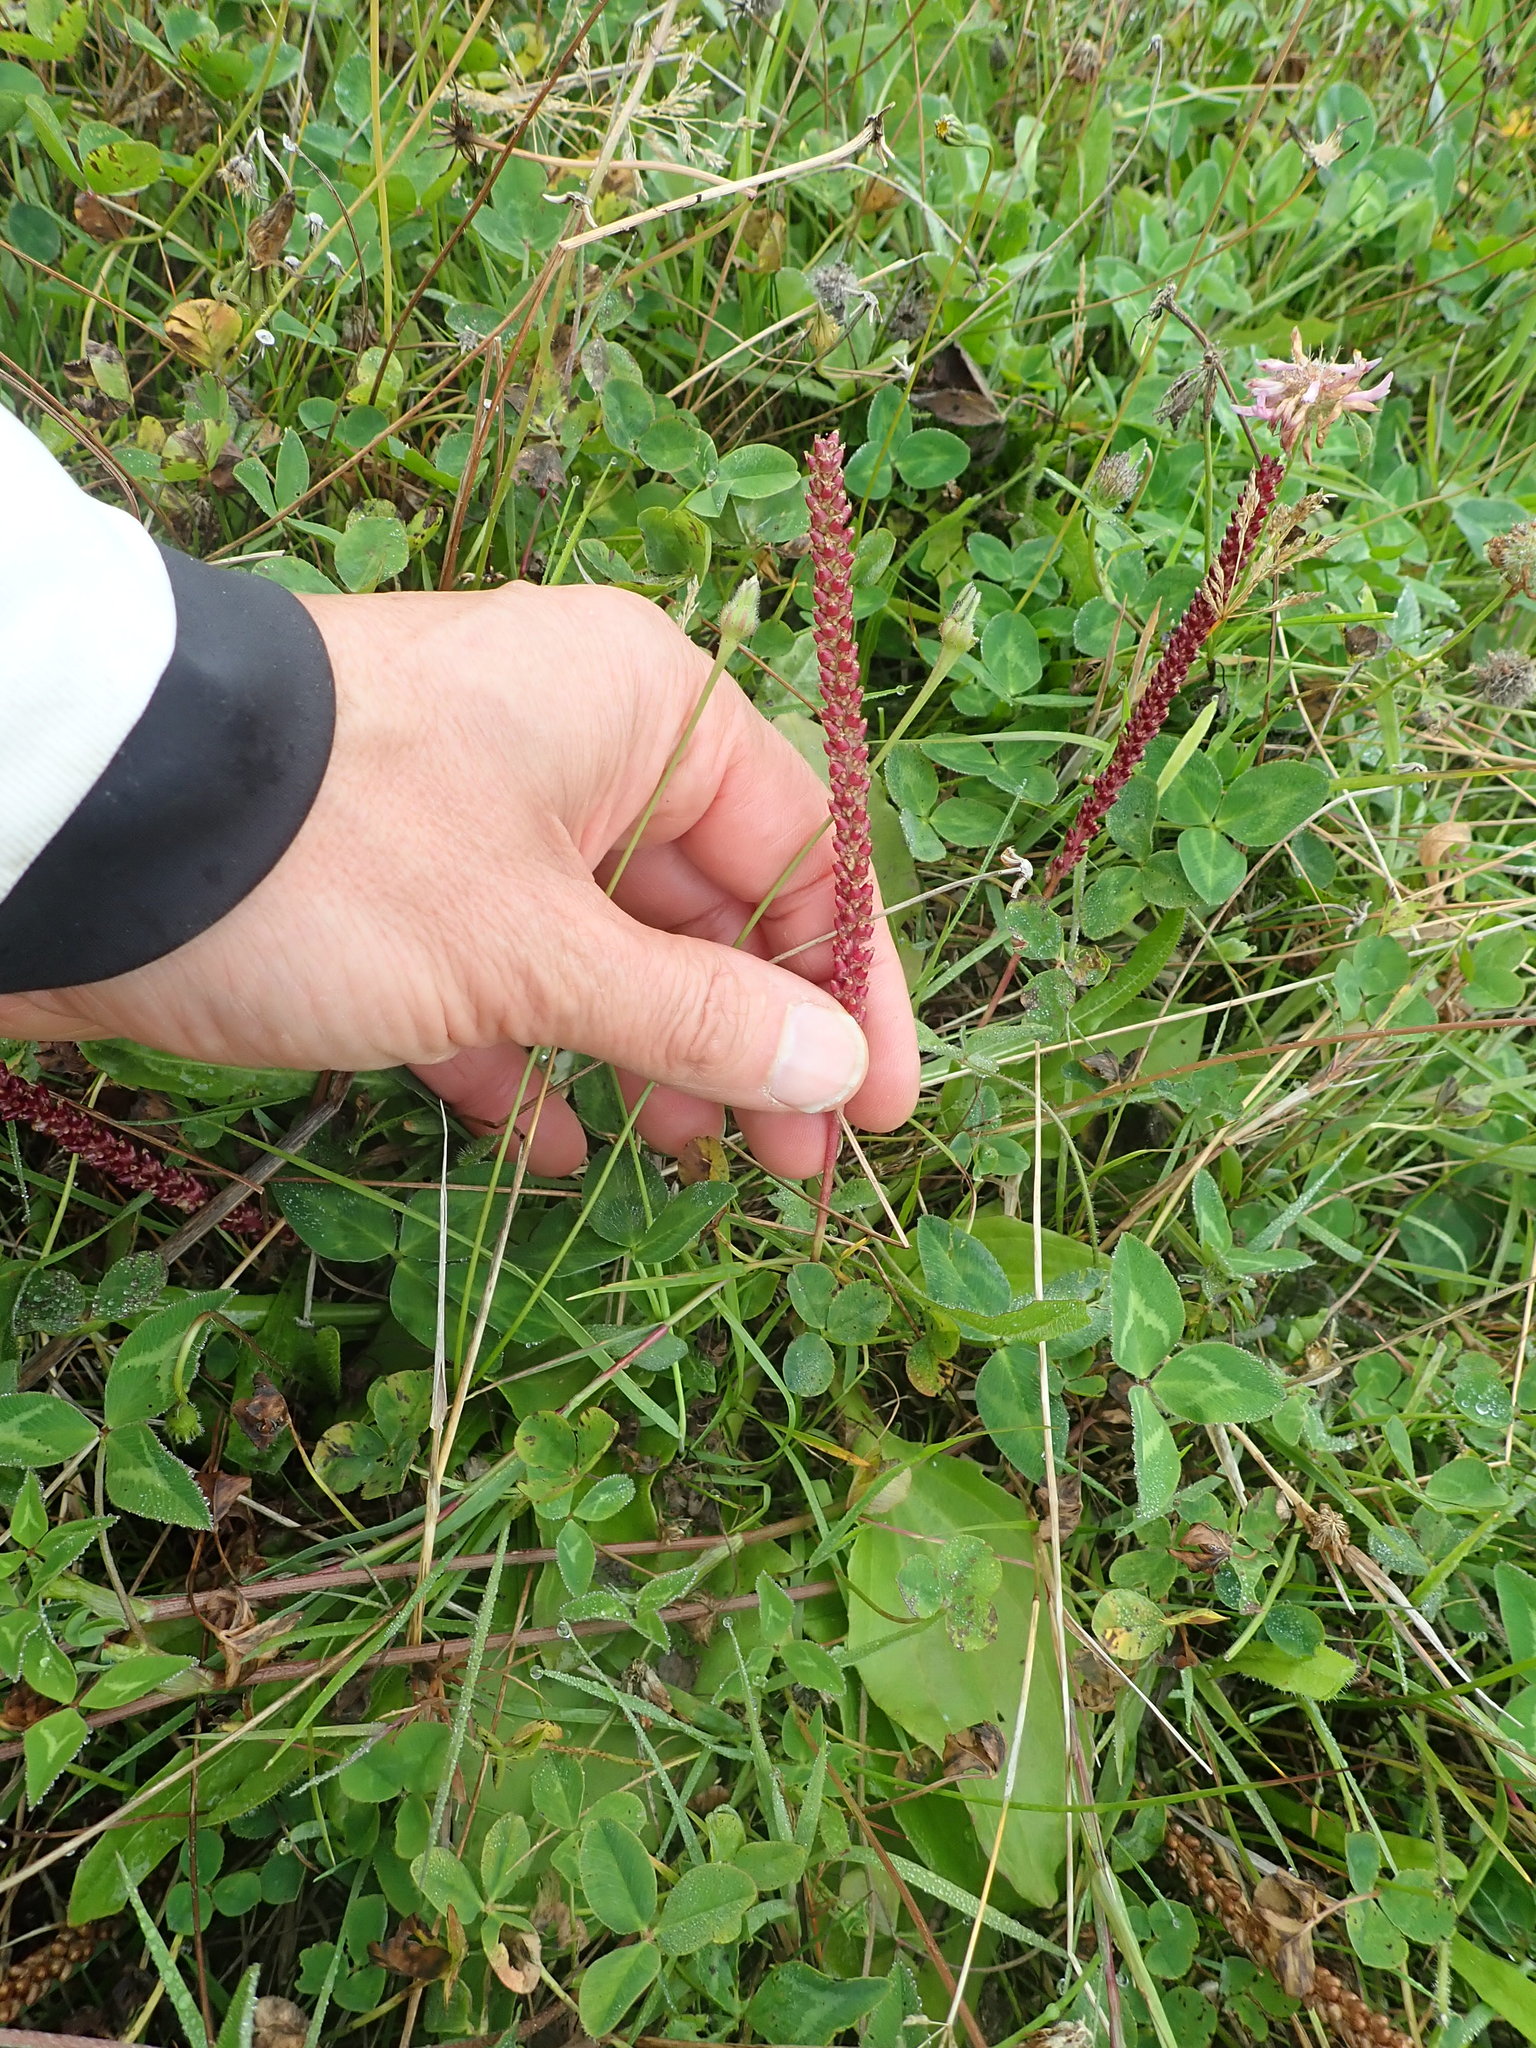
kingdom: Plantae
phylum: Tracheophyta
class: Magnoliopsida
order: Lamiales
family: Plantaginaceae
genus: Plantago
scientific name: Plantago australis
